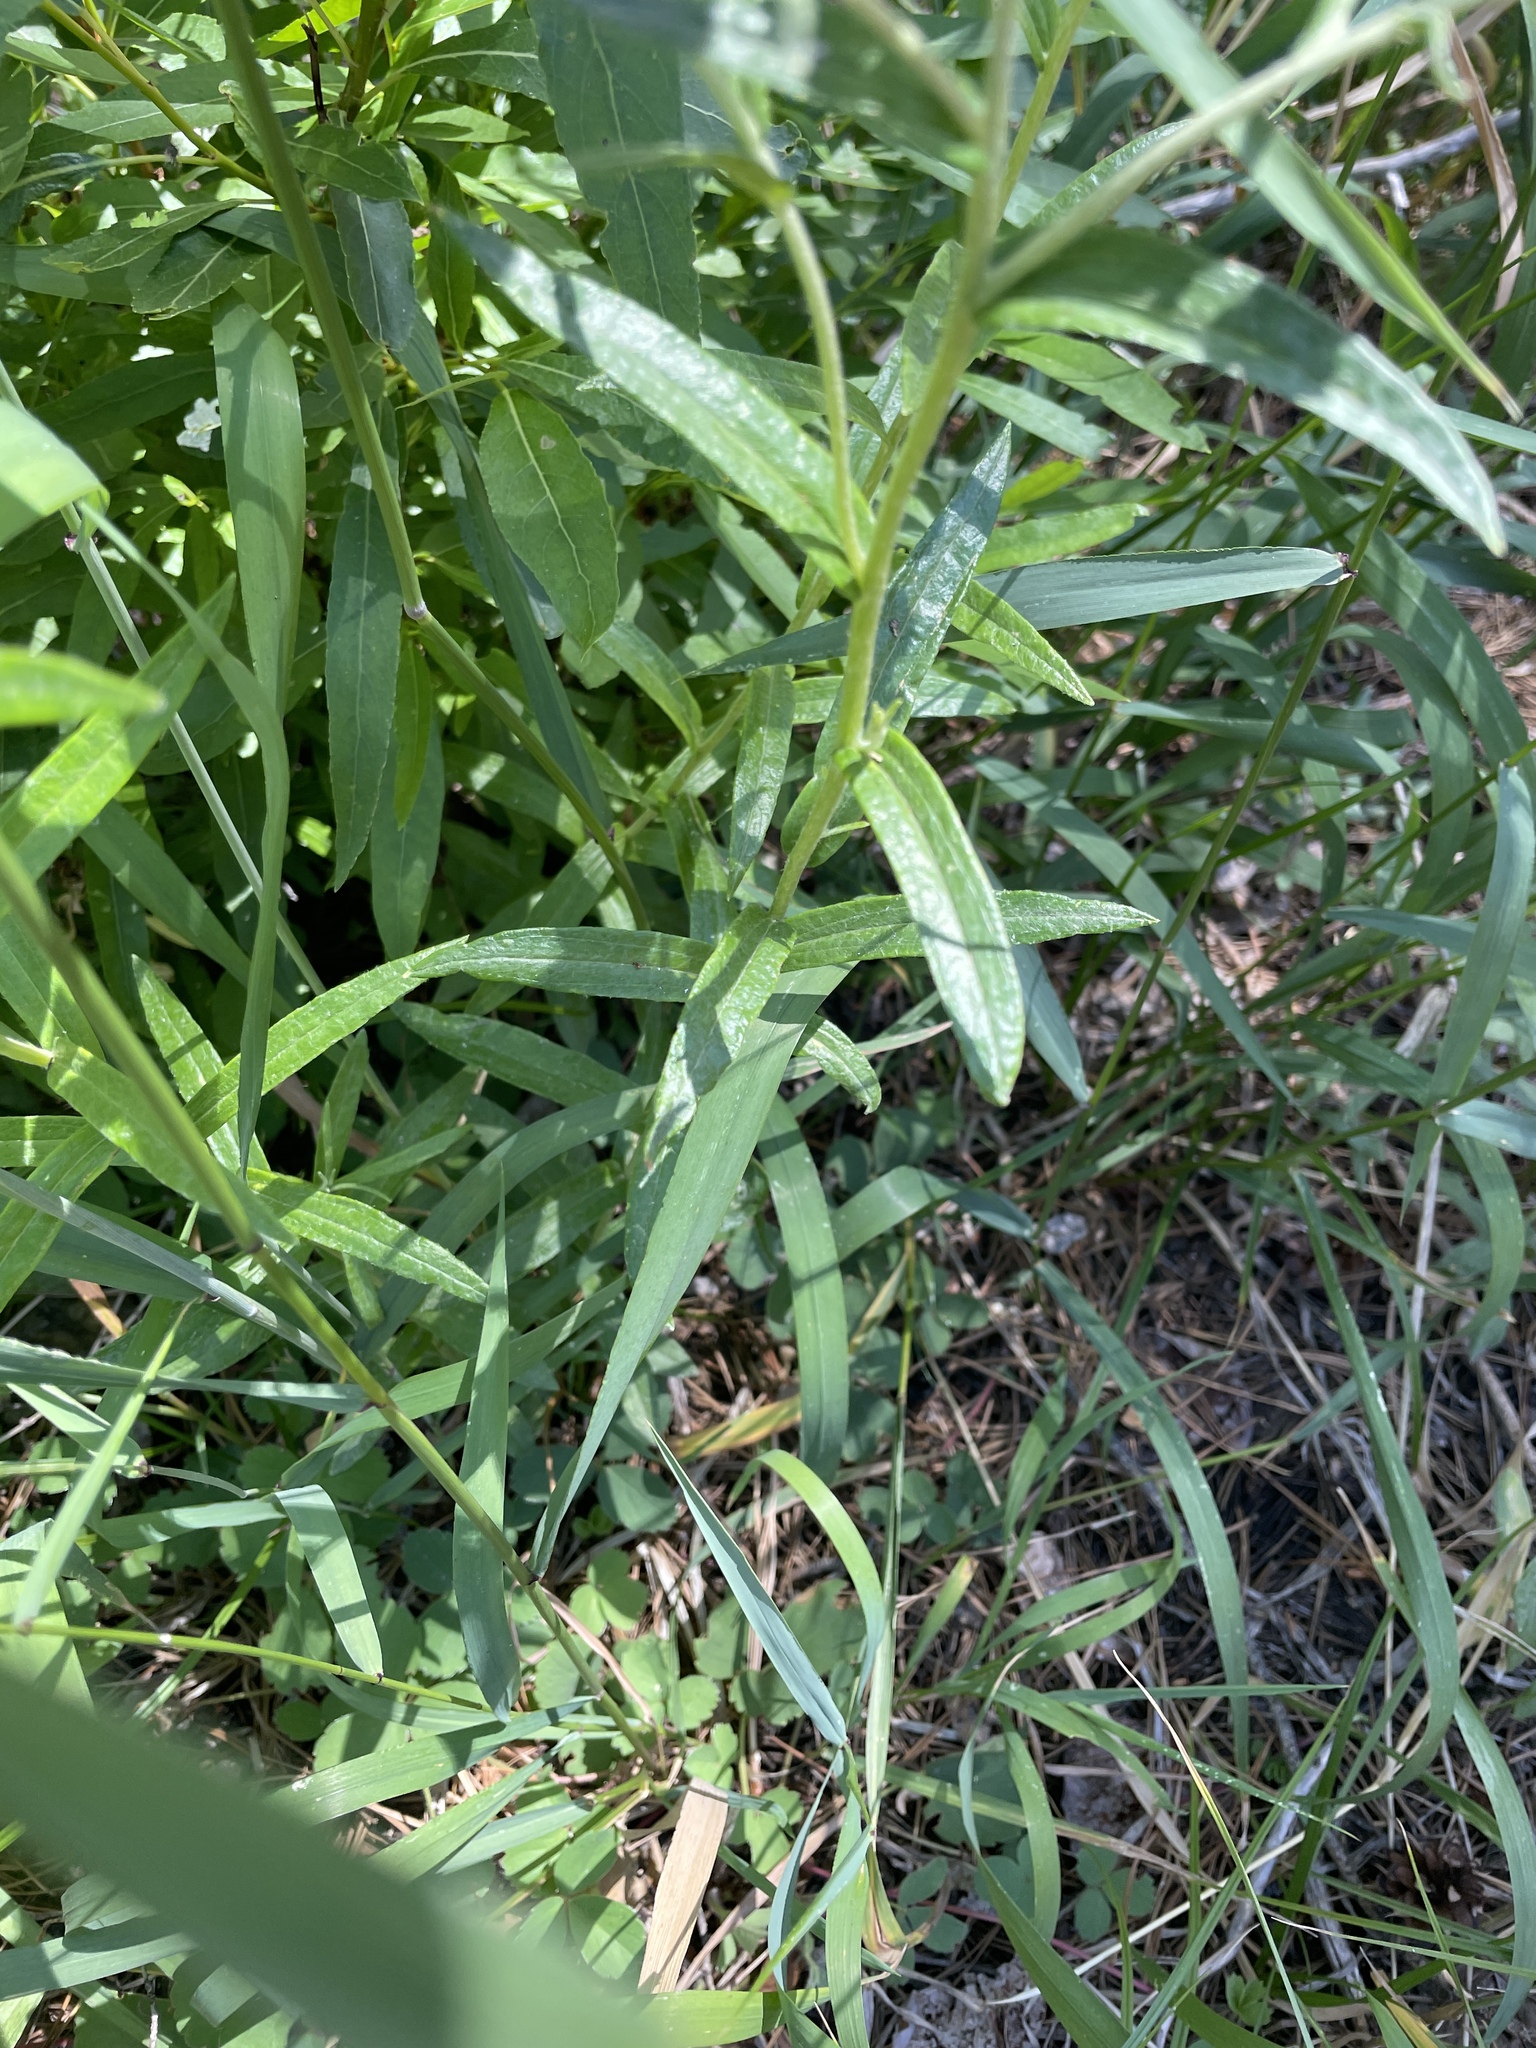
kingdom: Plantae
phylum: Tracheophyta
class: Magnoliopsida
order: Asterales
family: Asteraceae
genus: Anaphalis
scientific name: Anaphalis margaritacea
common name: Pearly everlasting
